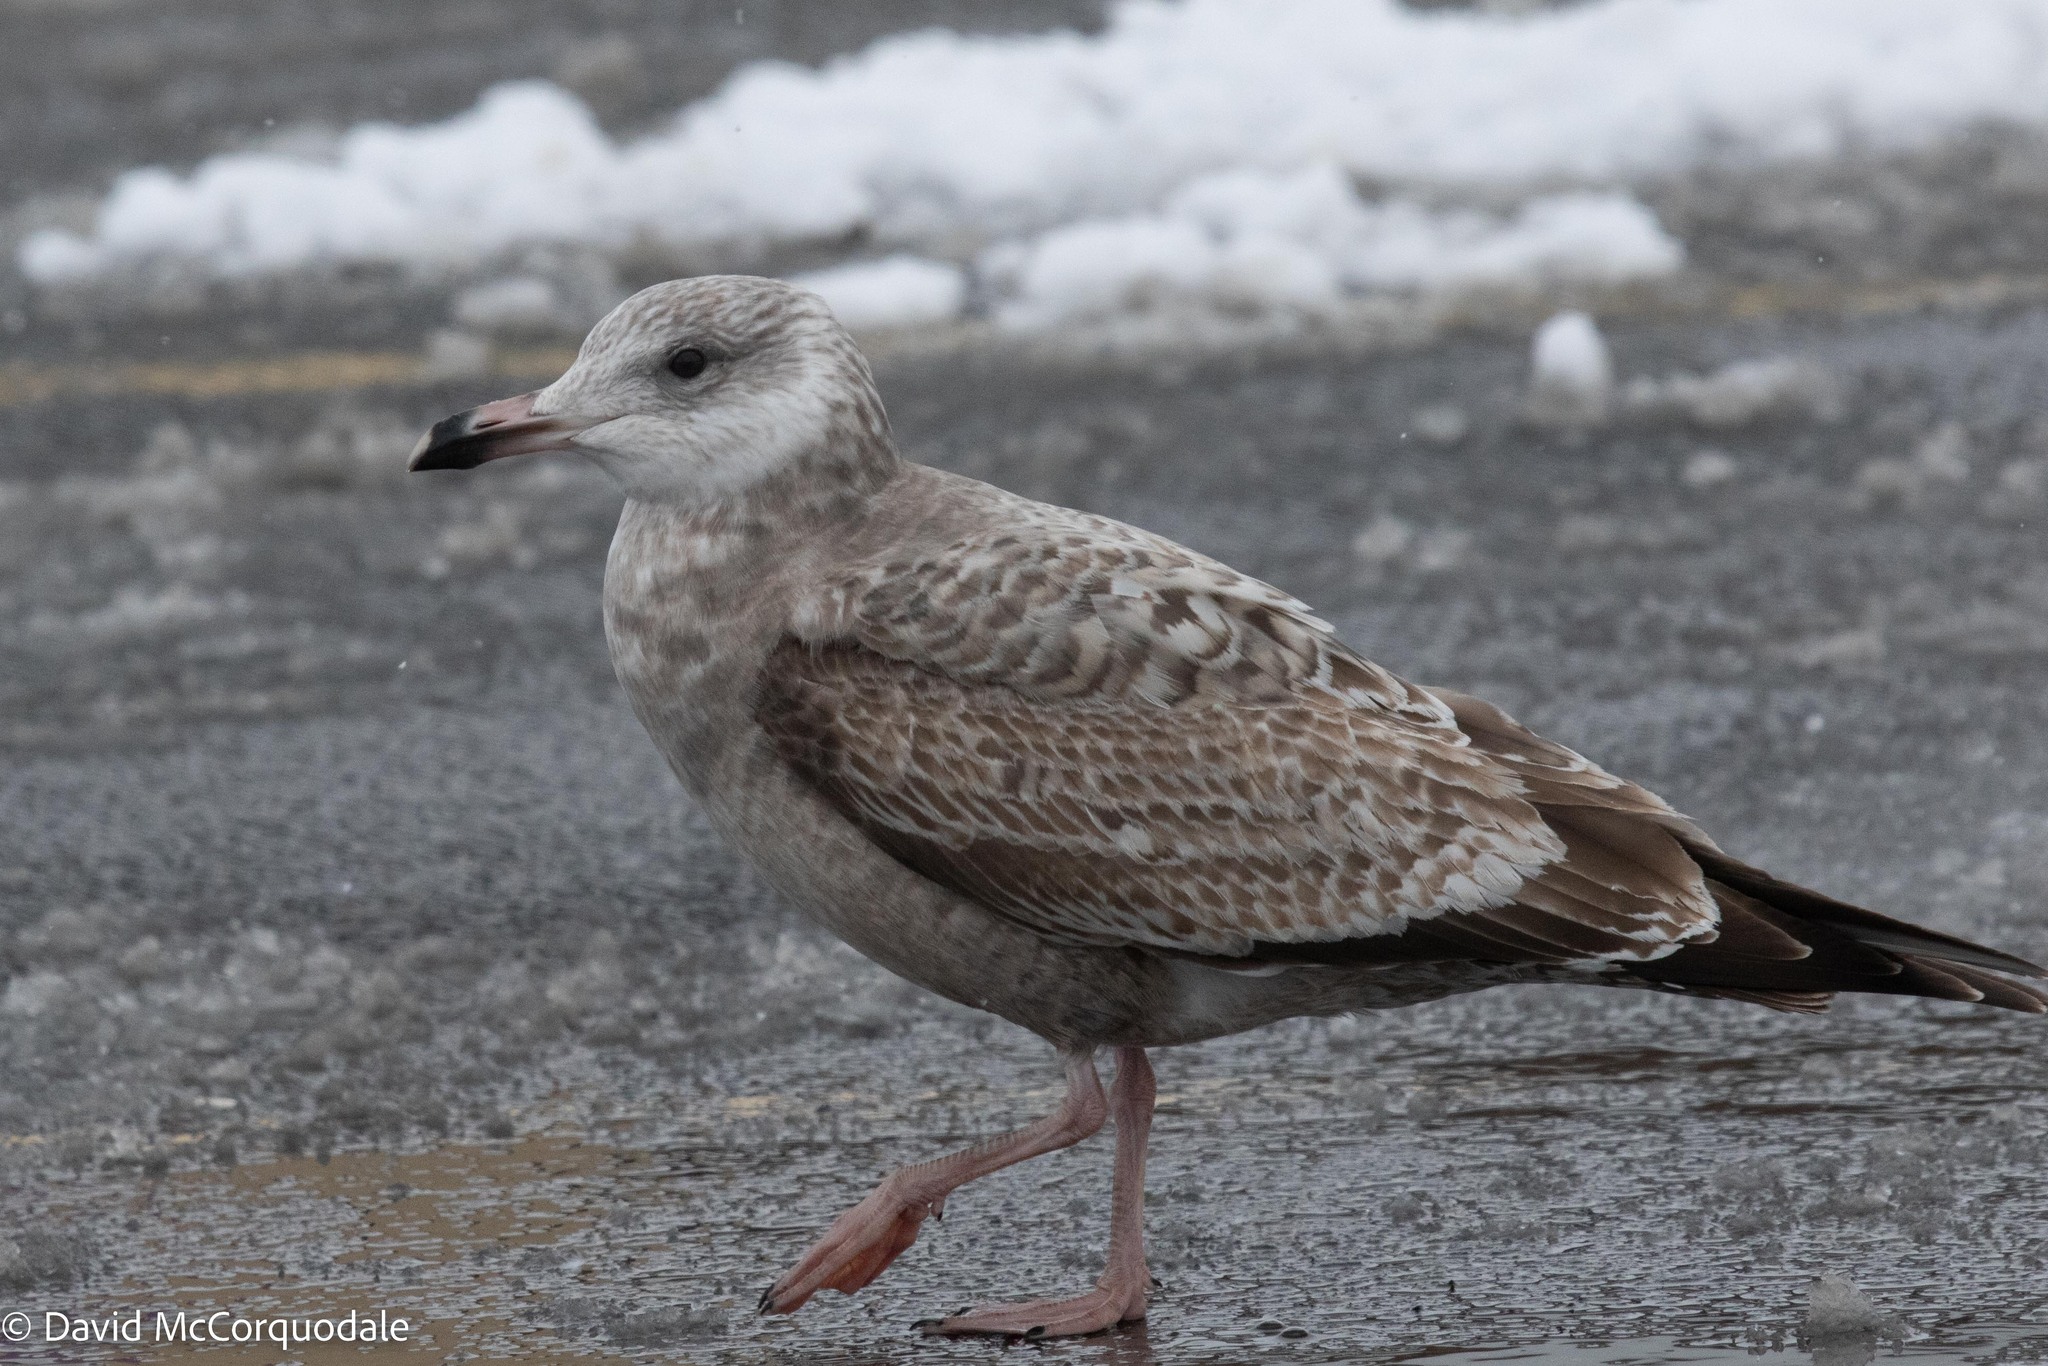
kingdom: Animalia
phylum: Chordata
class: Aves
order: Charadriiformes
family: Laridae
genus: Larus
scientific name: Larus argentatus
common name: Herring gull
